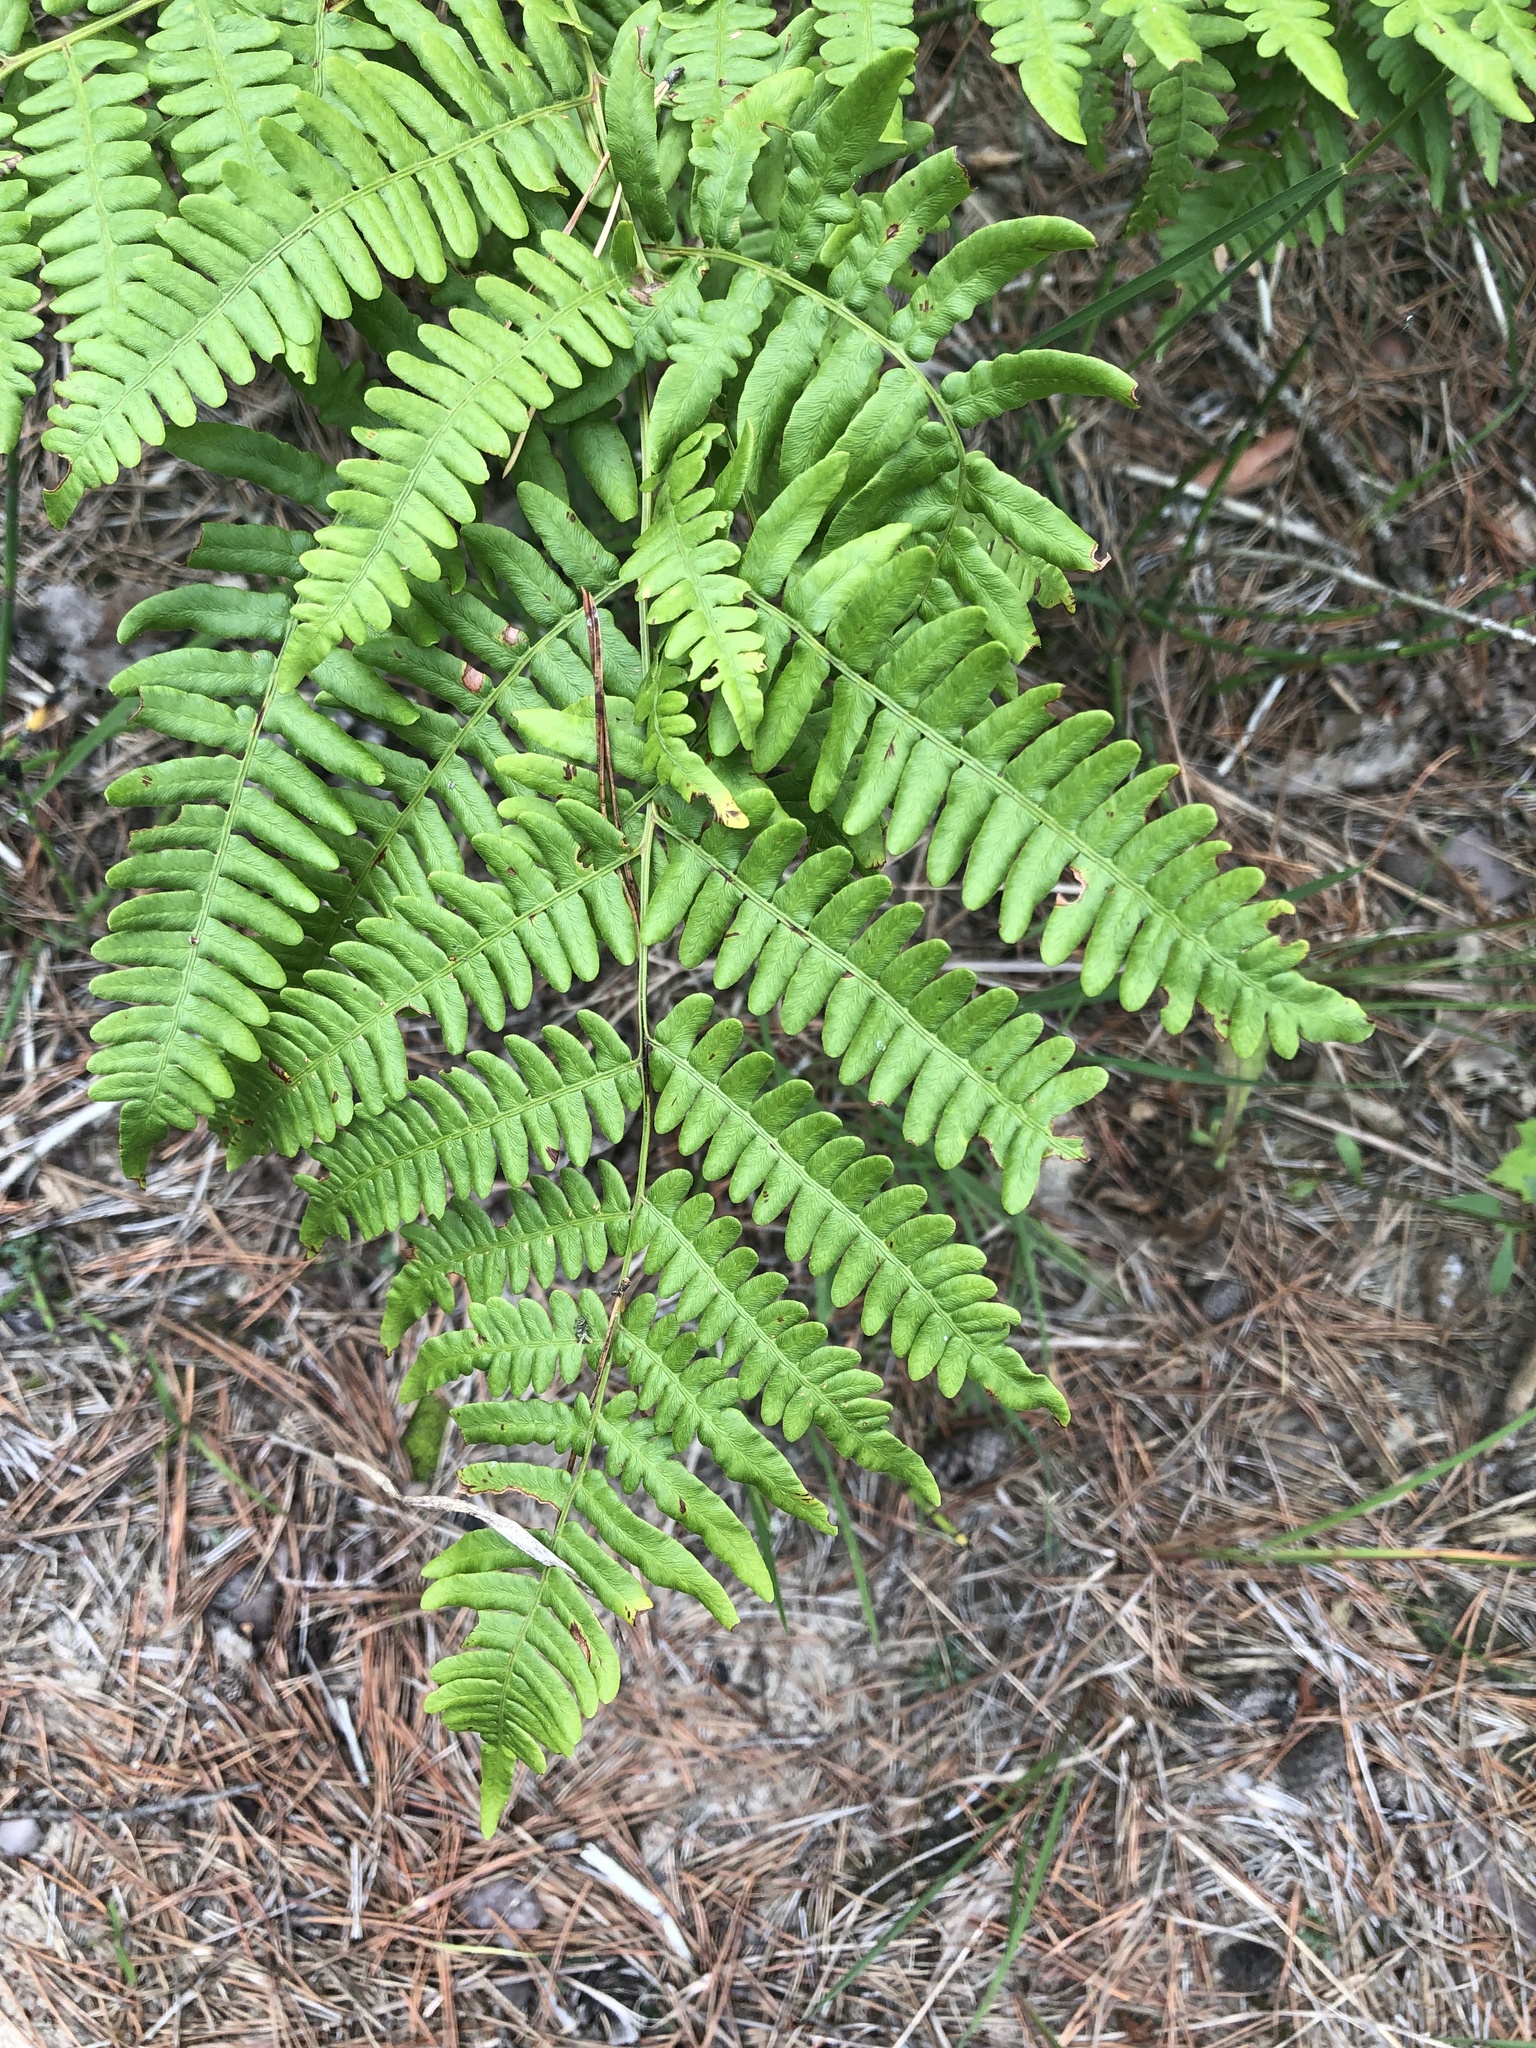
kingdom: Plantae
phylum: Tracheophyta
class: Polypodiopsida
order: Polypodiales
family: Dennstaedtiaceae
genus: Pteridium
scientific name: Pteridium aquilinum
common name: Bracken
